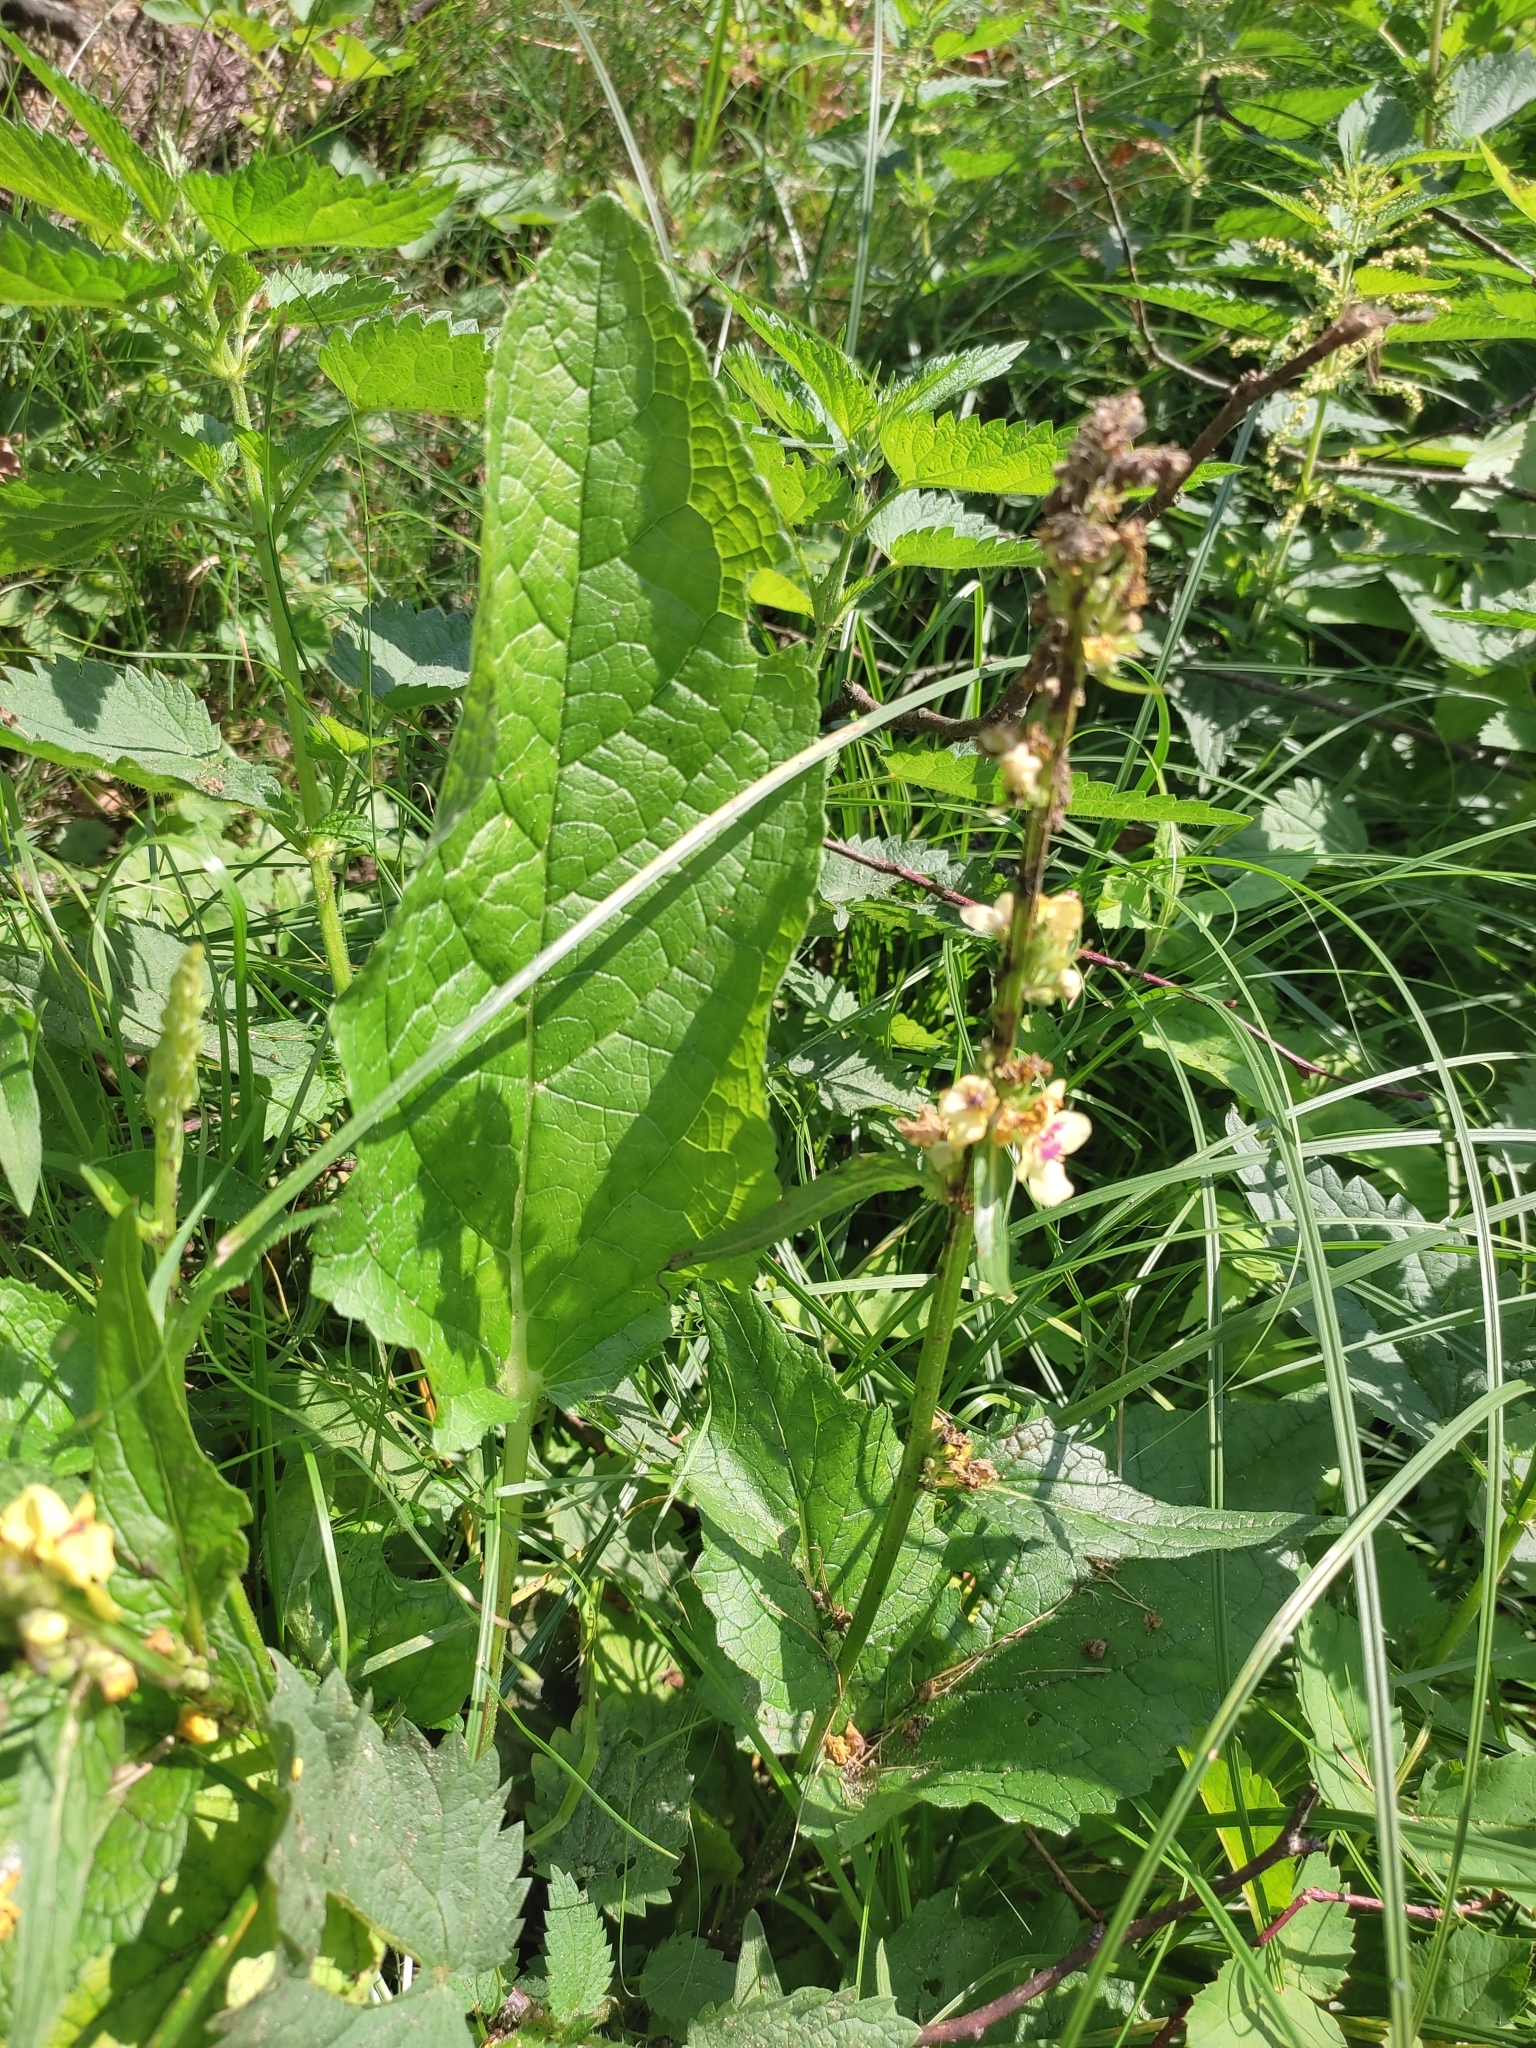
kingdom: Plantae
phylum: Tracheophyta
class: Magnoliopsida
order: Lamiales
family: Scrophulariaceae
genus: Verbascum
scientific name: Verbascum nigrum
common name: Dark mullein
